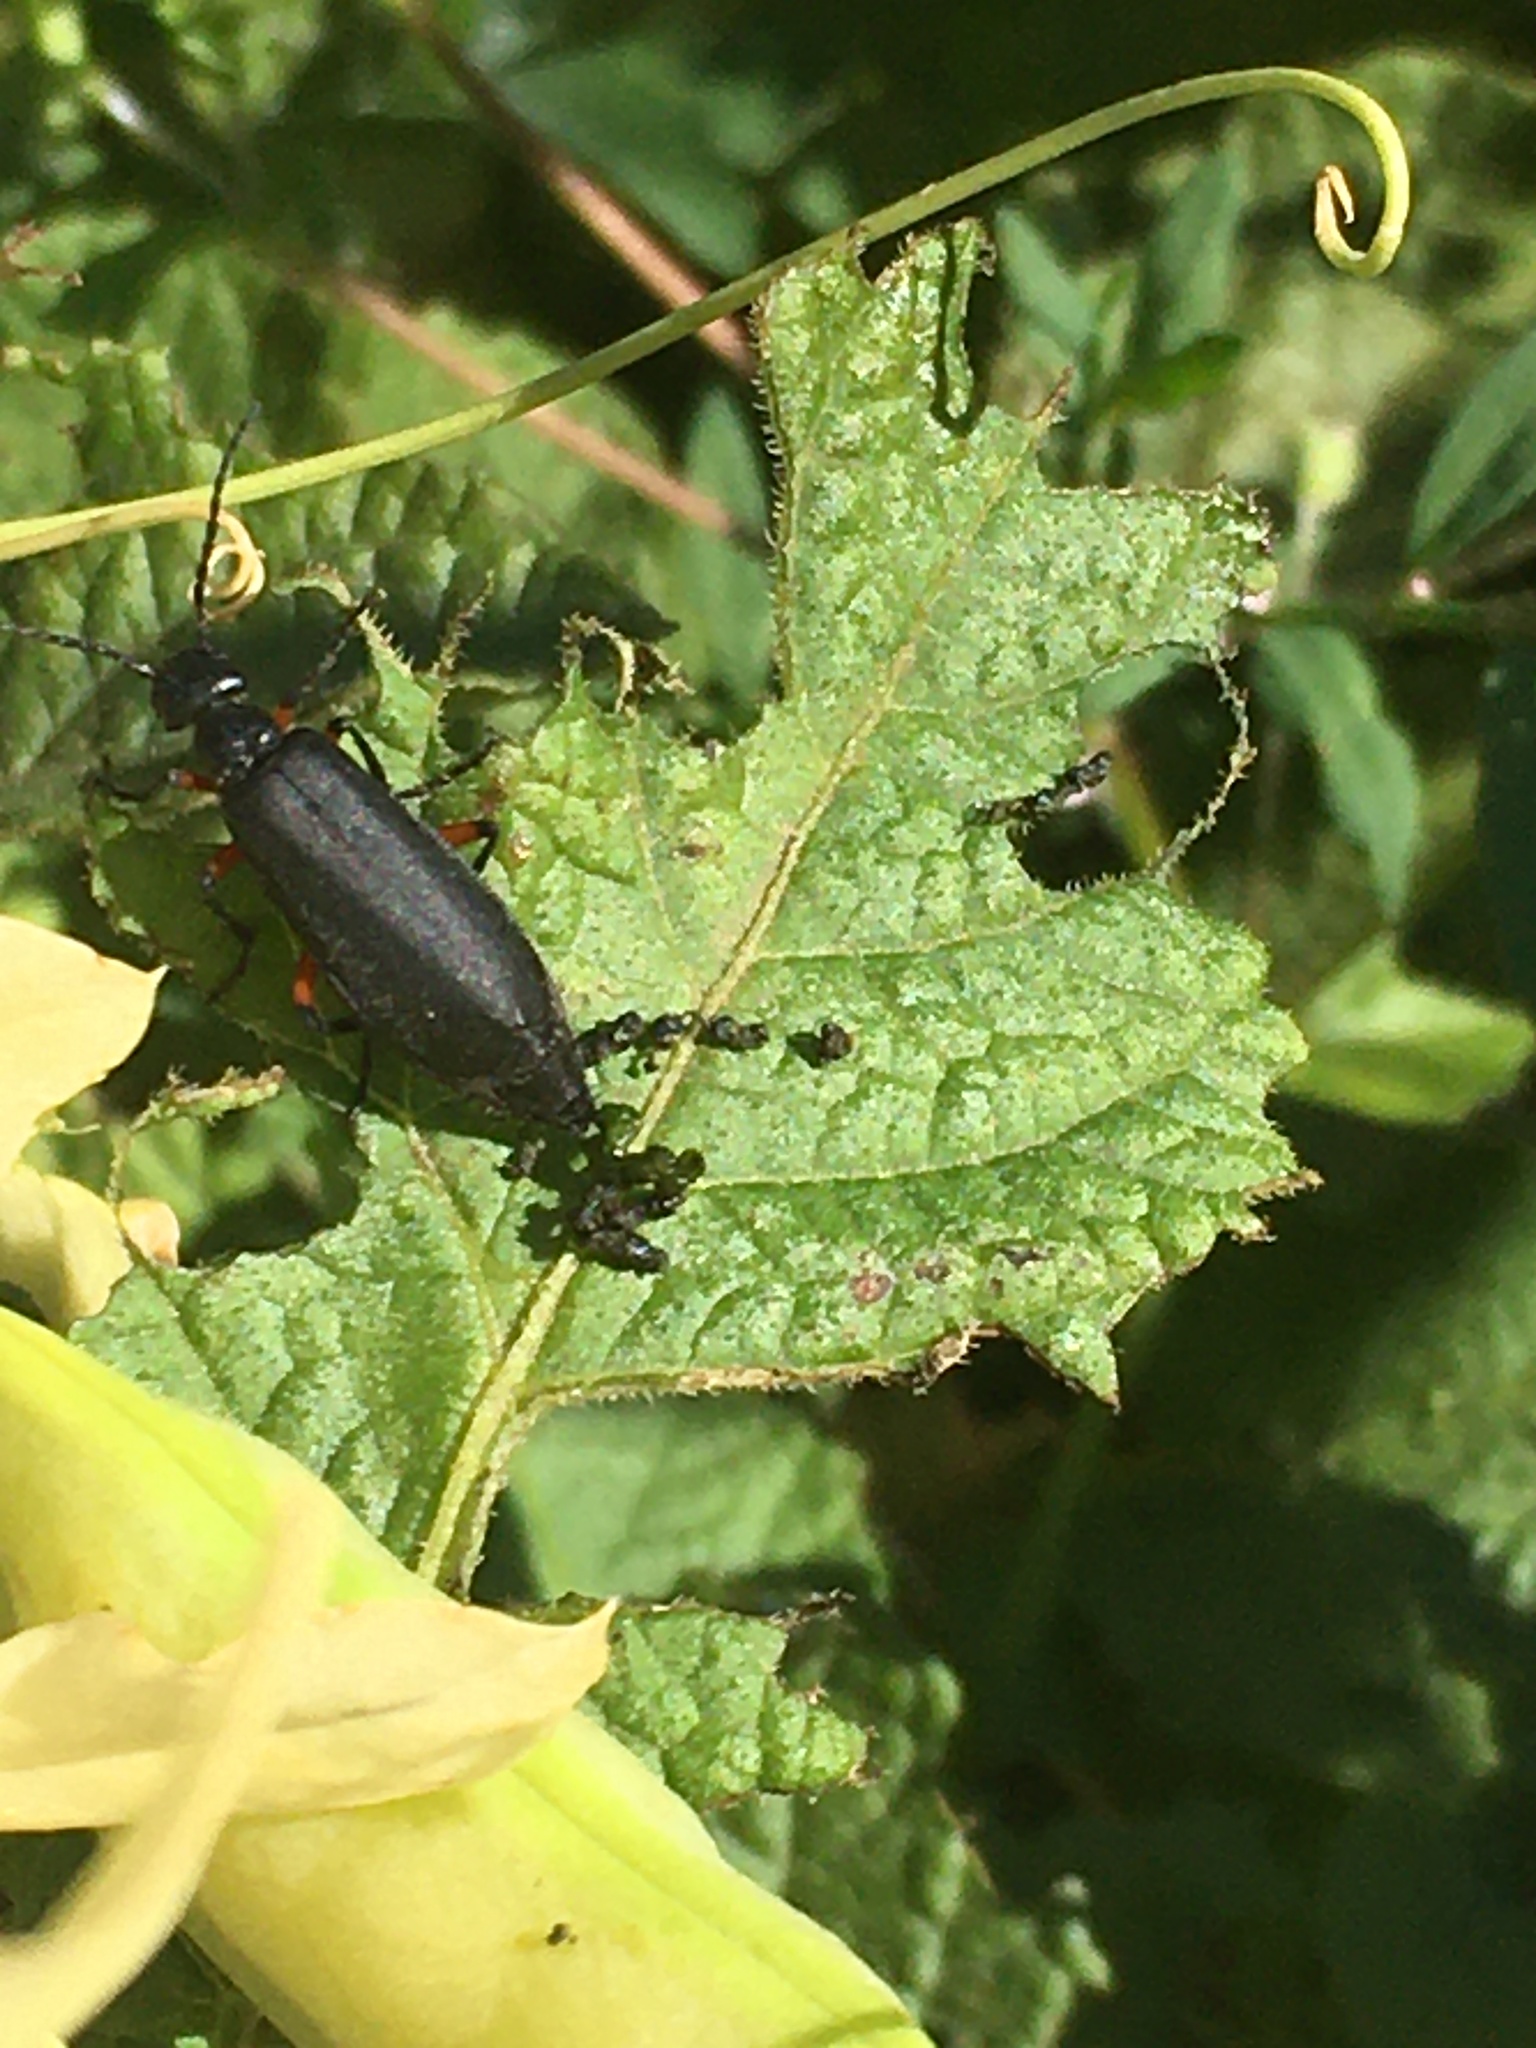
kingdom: Animalia
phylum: Arthropoda
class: Insecta
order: Coleoptera
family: Meloidae
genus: Epicauta
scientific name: Epicauta
